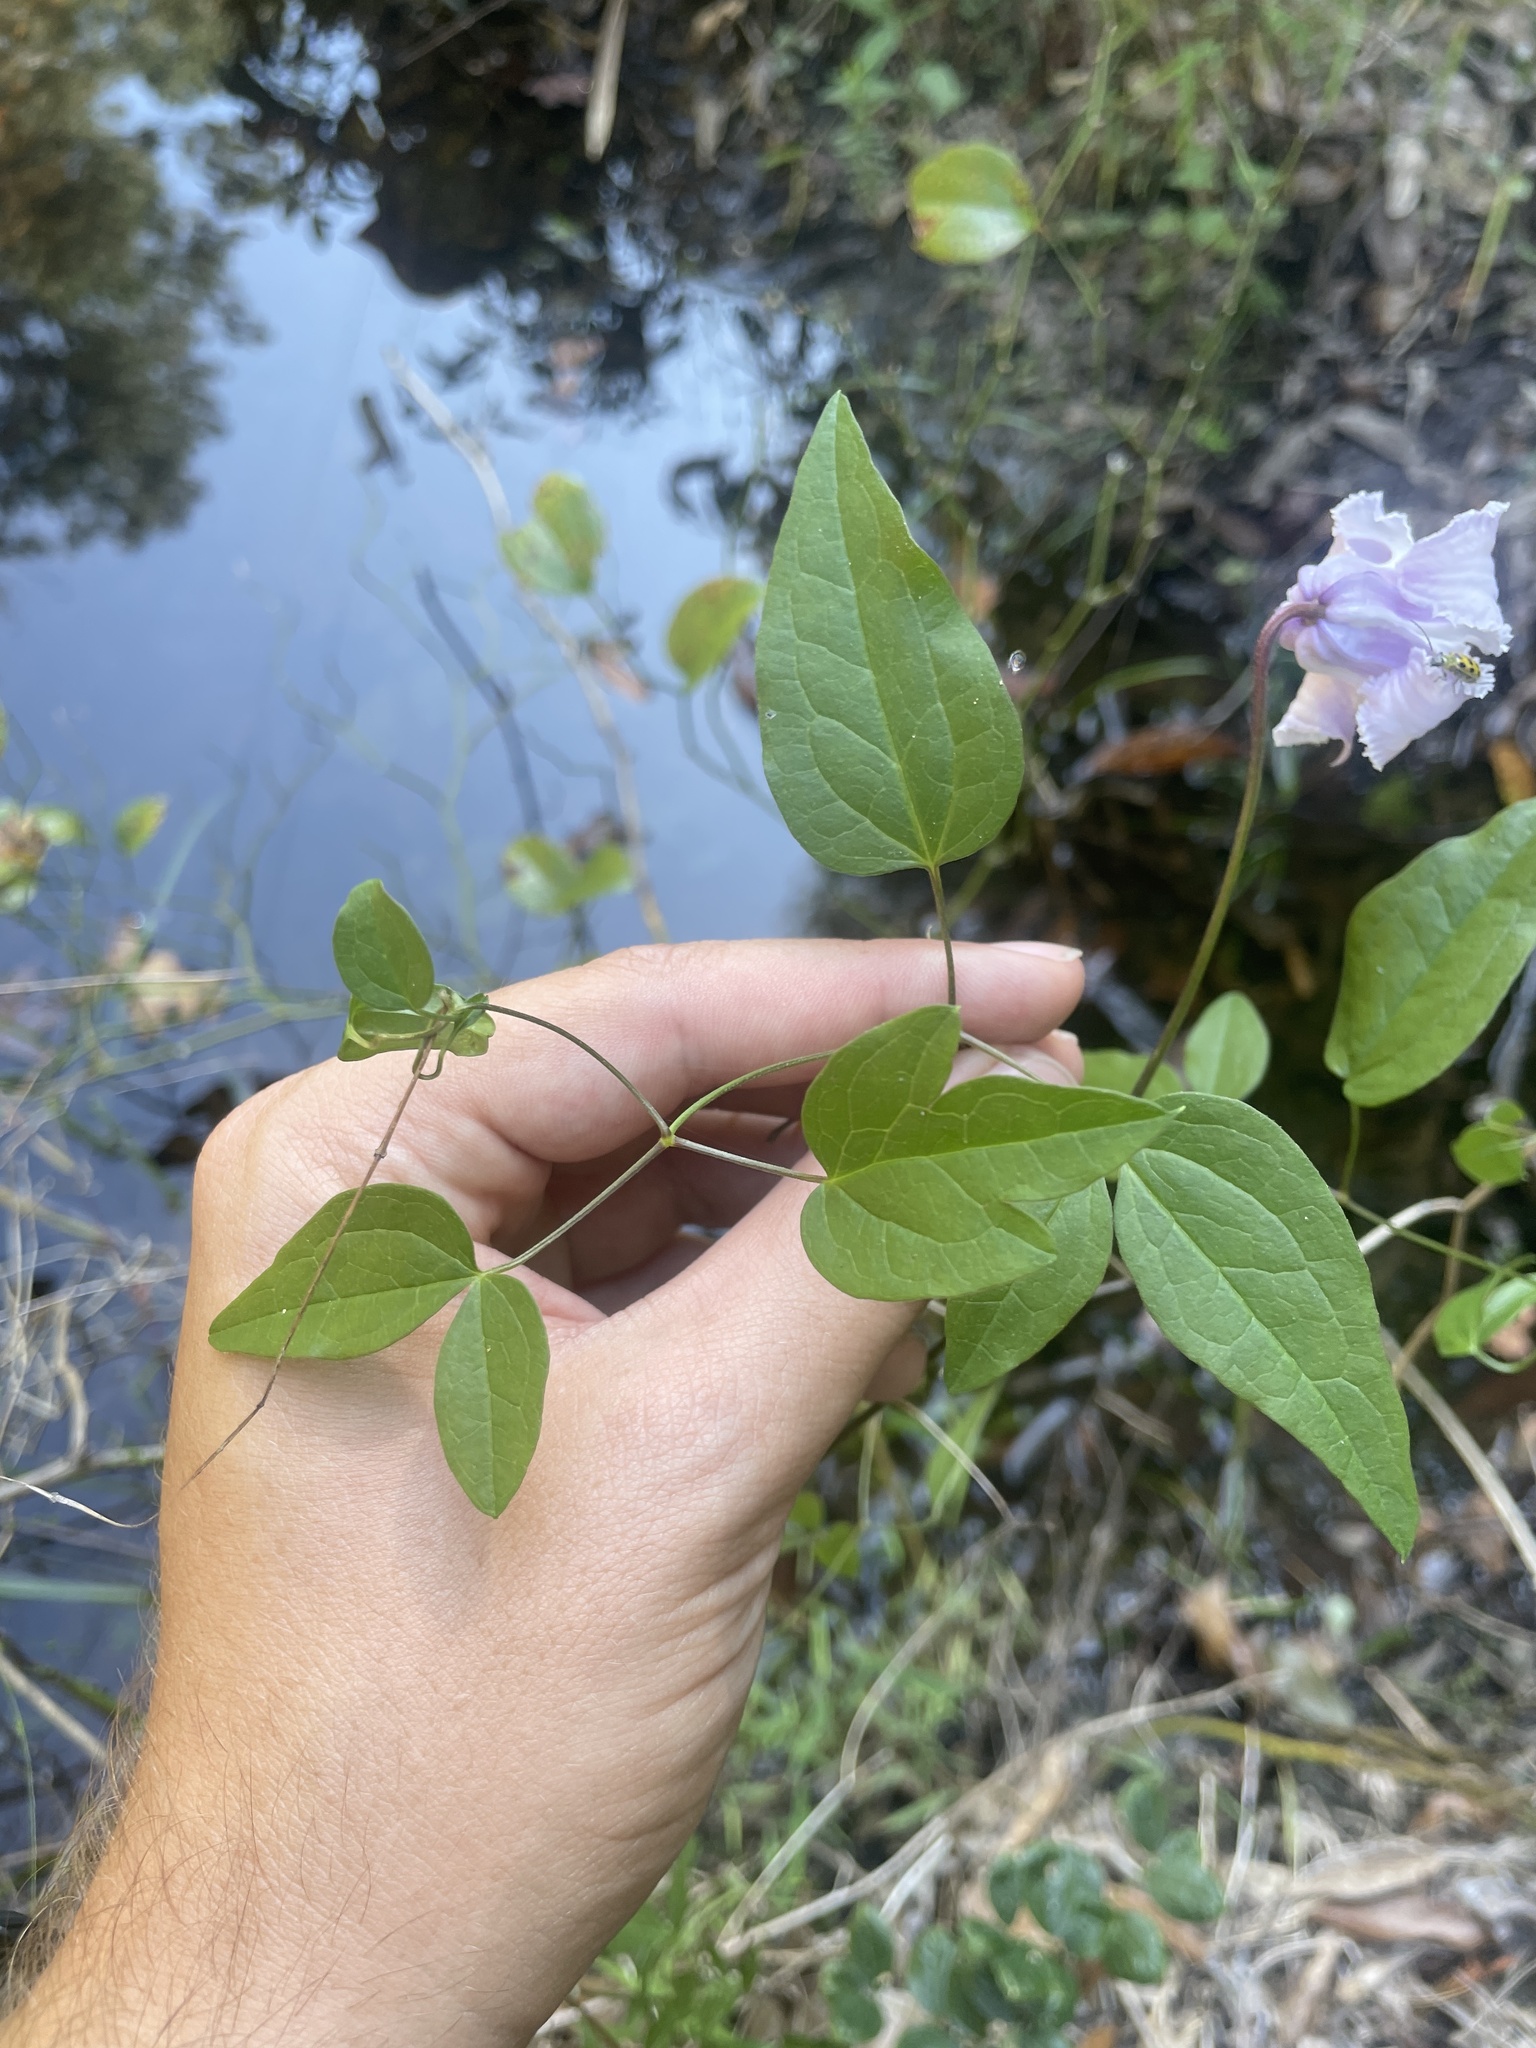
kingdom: Plantae
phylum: Tracheophyta
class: Magnoliopsida
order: Ranunculales
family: Ranunculaceae
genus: Clematis
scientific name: Clematis crispa
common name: Curly clematis
